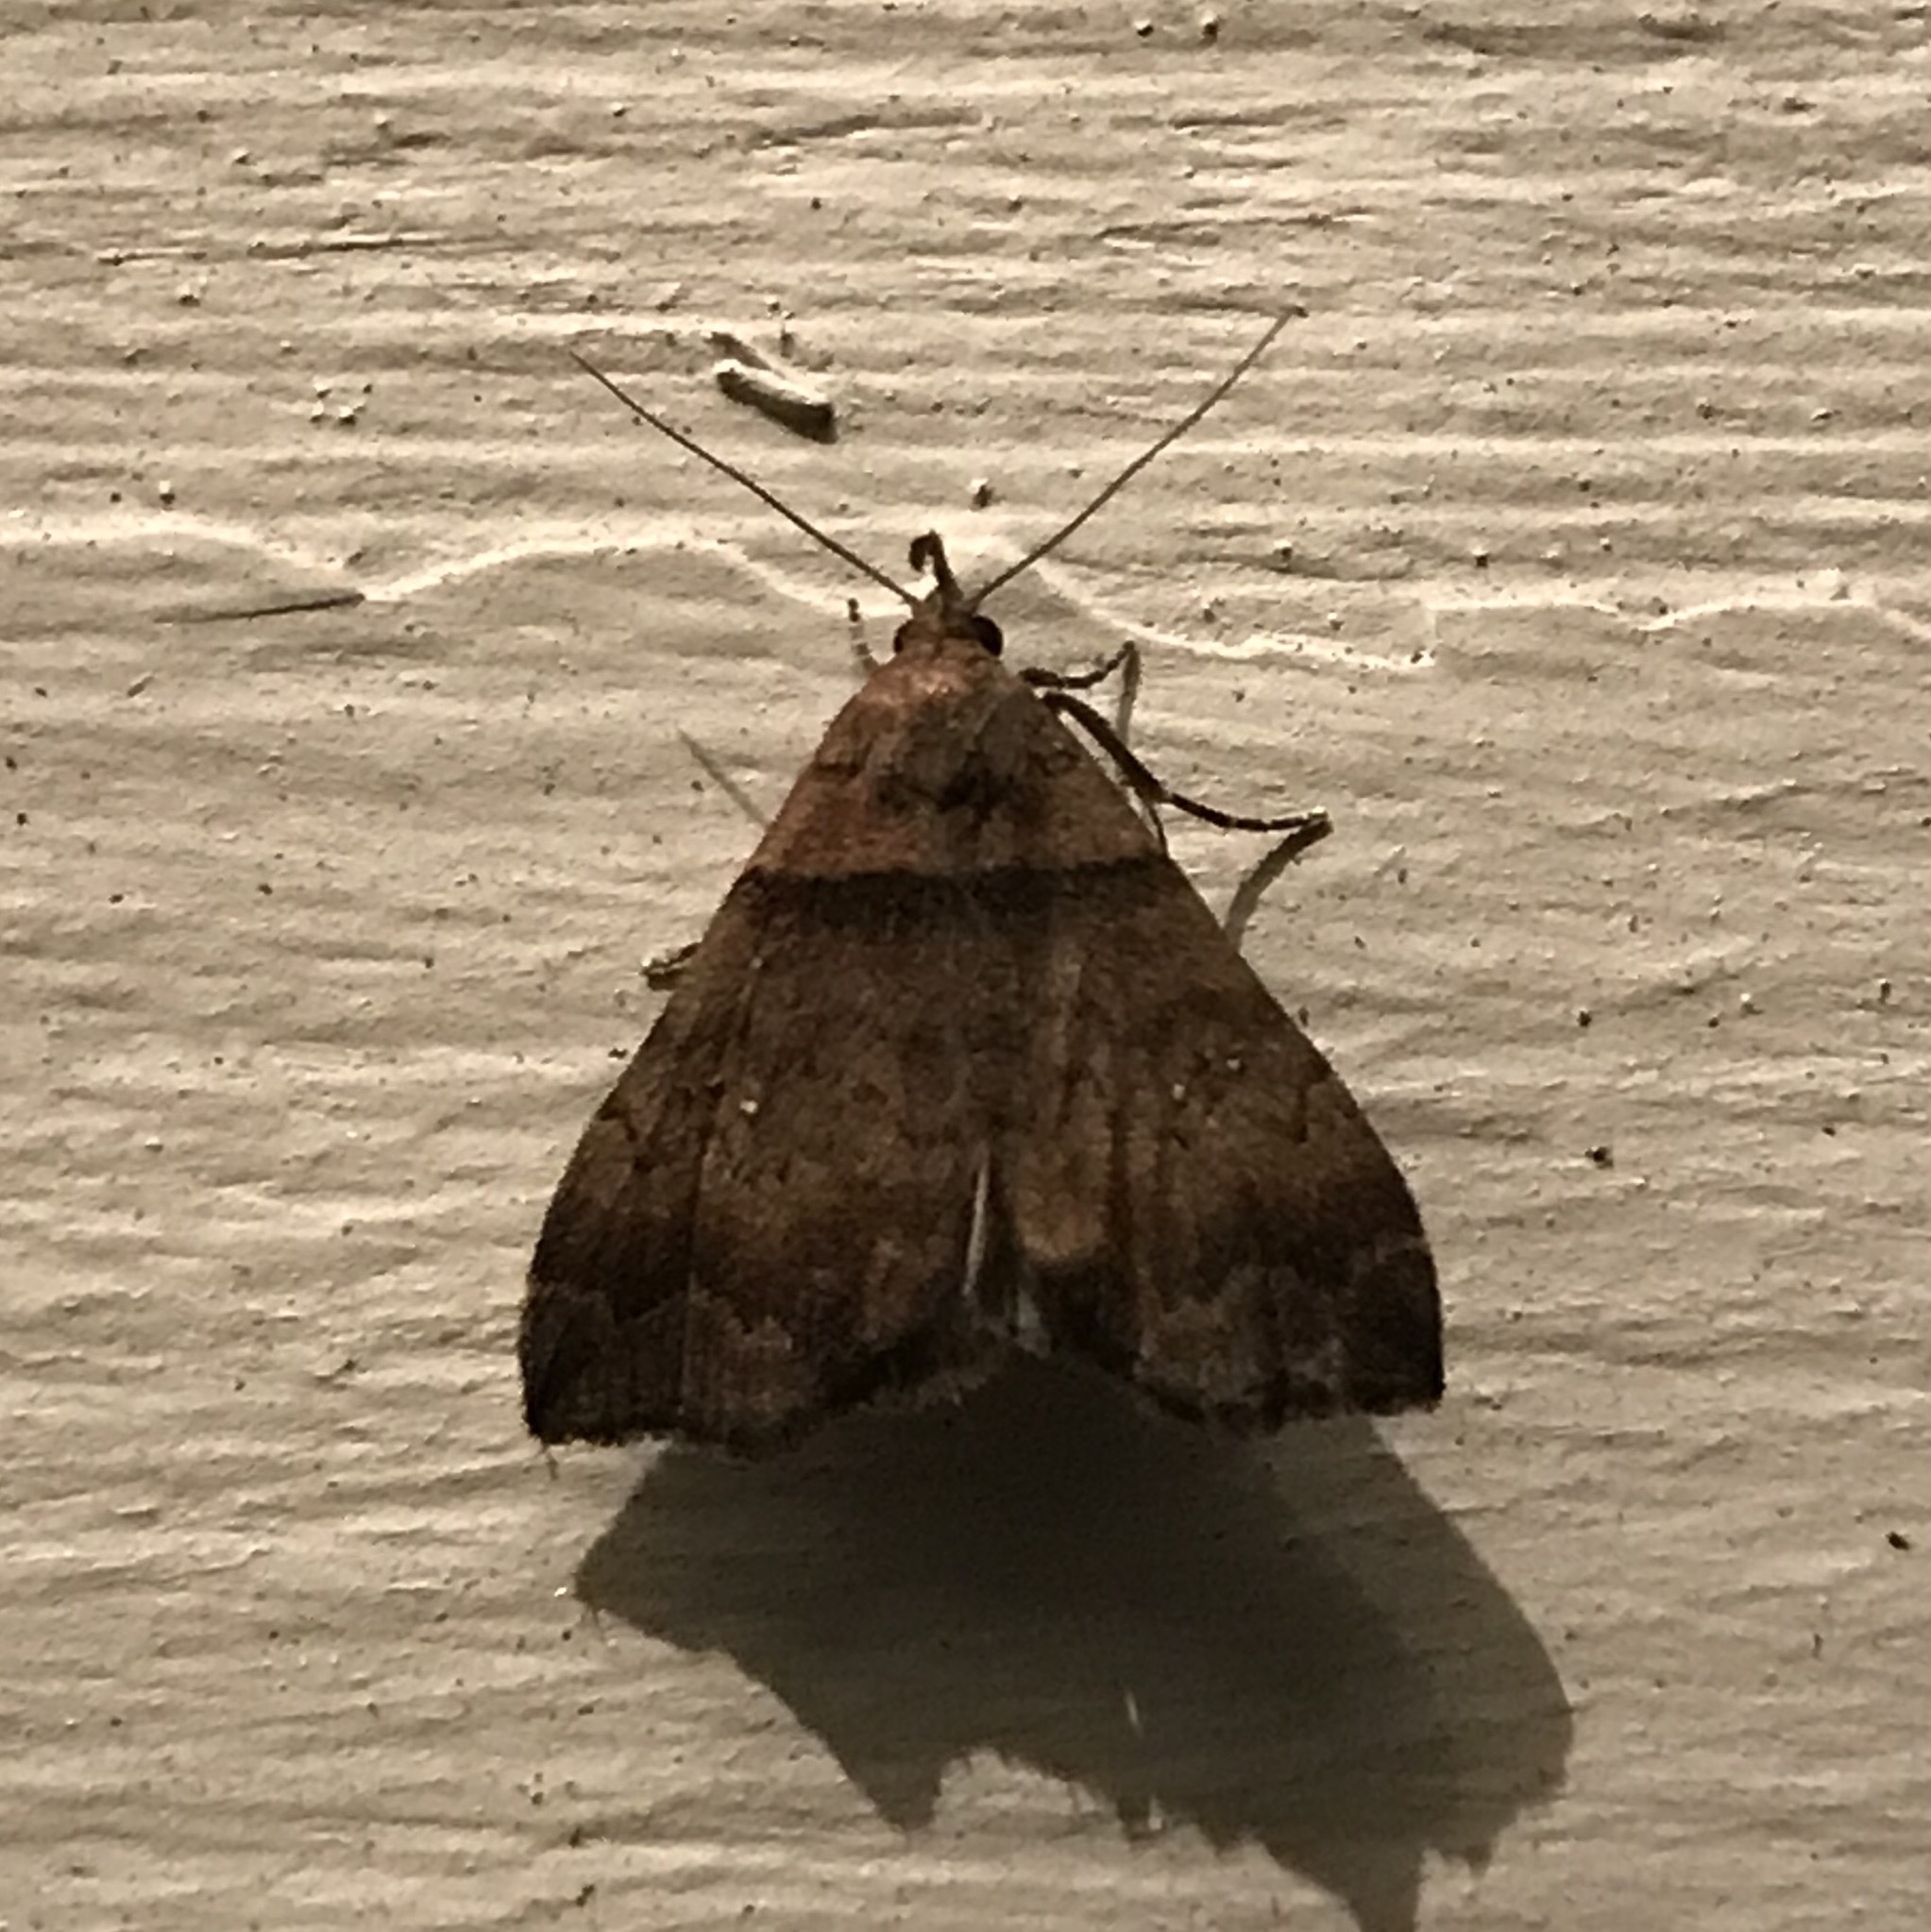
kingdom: Animalia
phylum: Arthropoda
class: Insecta
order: Lepidoptera
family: Erebidae
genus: Lascoria
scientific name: Lascoria ambigualis
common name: Ambiguous moth
